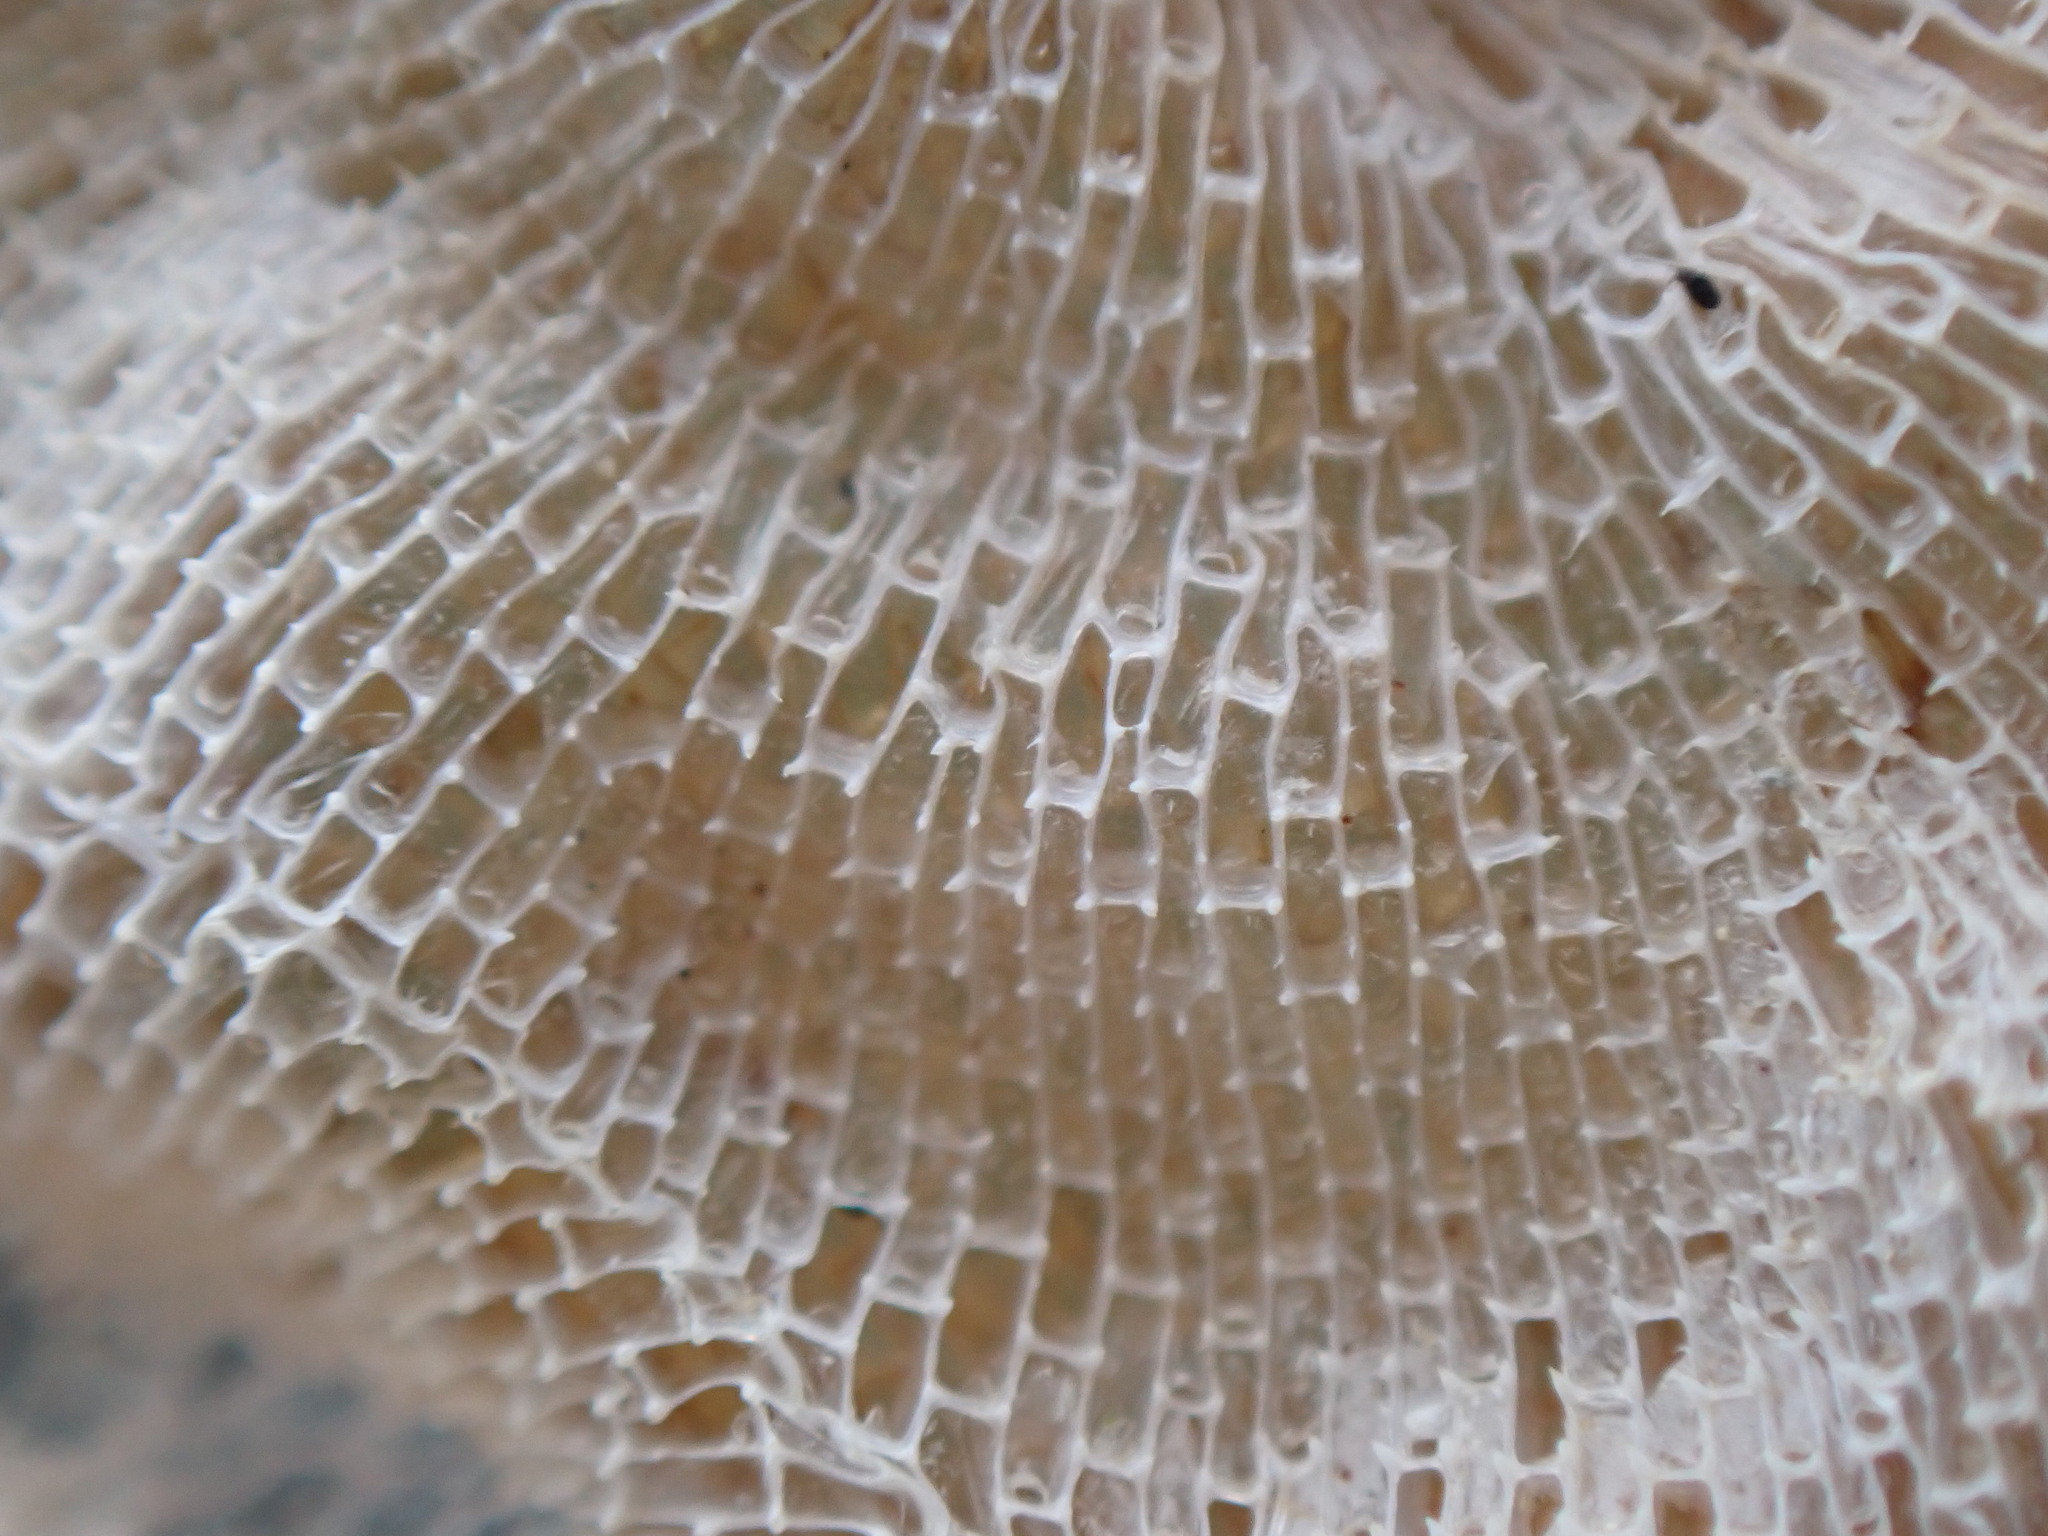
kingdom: Animalia
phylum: Bryozoa
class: Gymnolaemata
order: Cheilostomatida
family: Membraniporidae
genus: Membranipora
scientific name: Membranipora membranacea
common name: Sea mat
